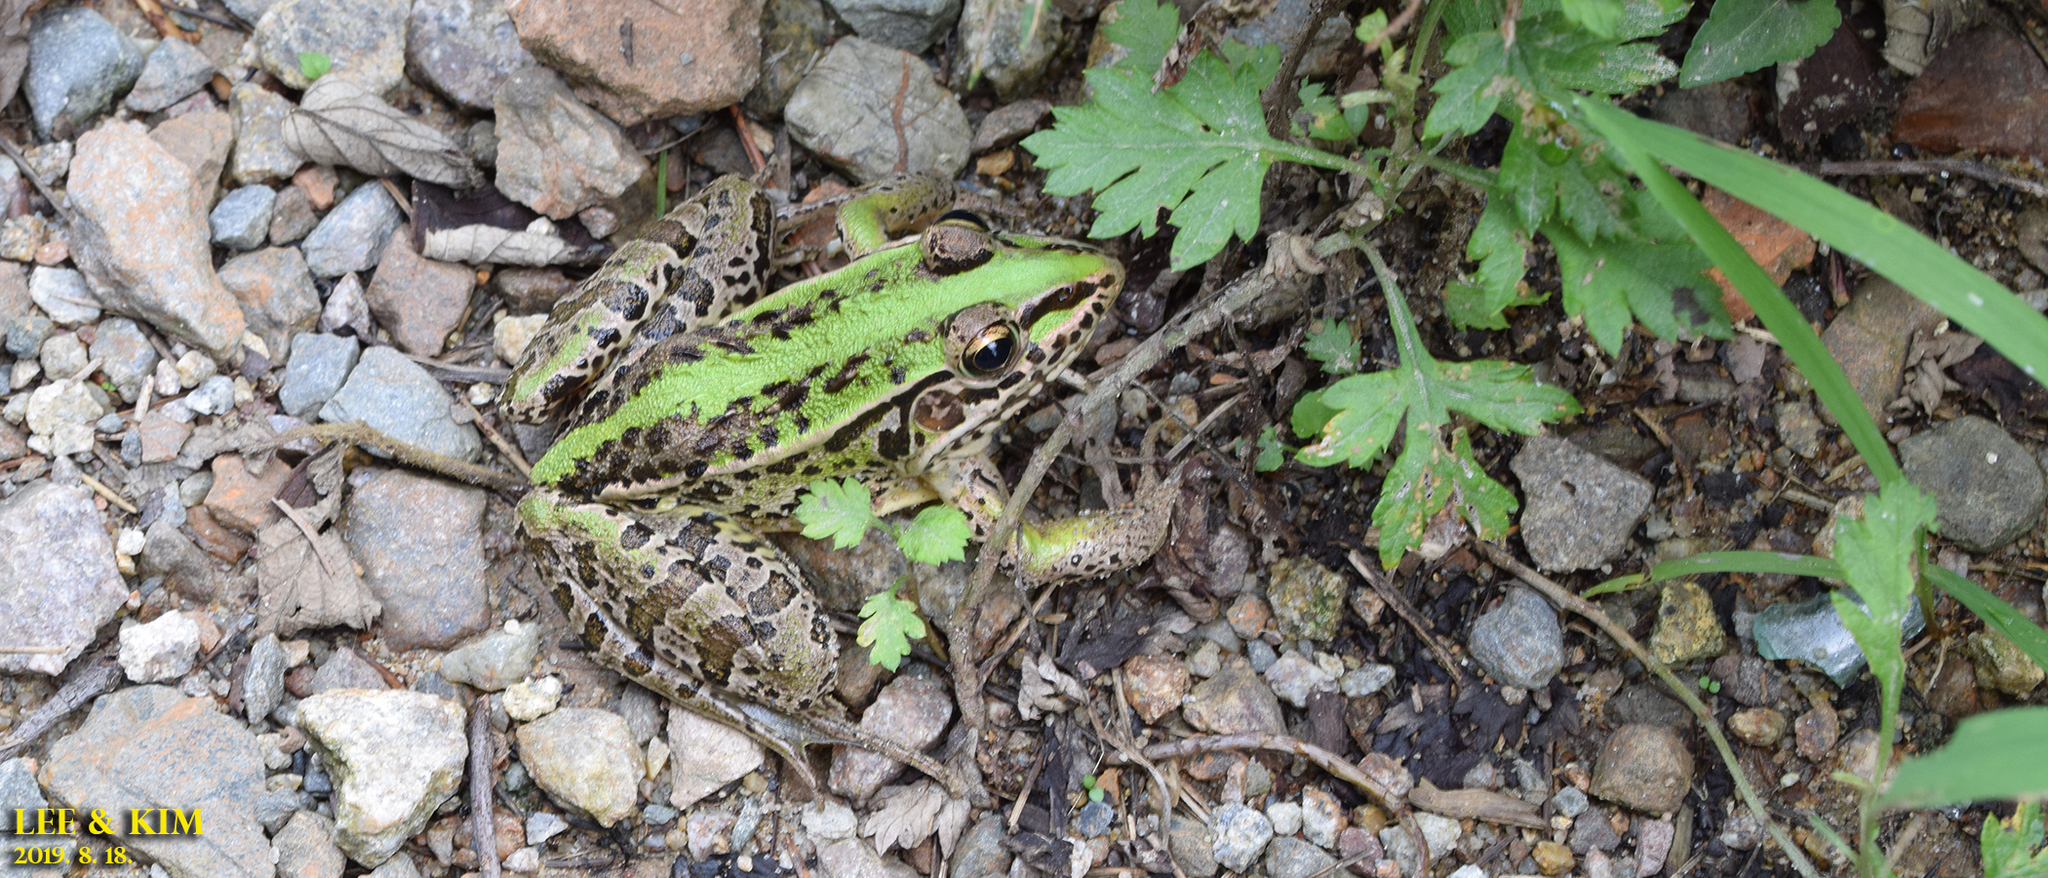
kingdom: Animalia
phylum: Chordata
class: Amphibia
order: Anura
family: Ranidae
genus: Pelophylax
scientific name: Pelophylax nigromaculatus
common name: Black-spotted pond frog
